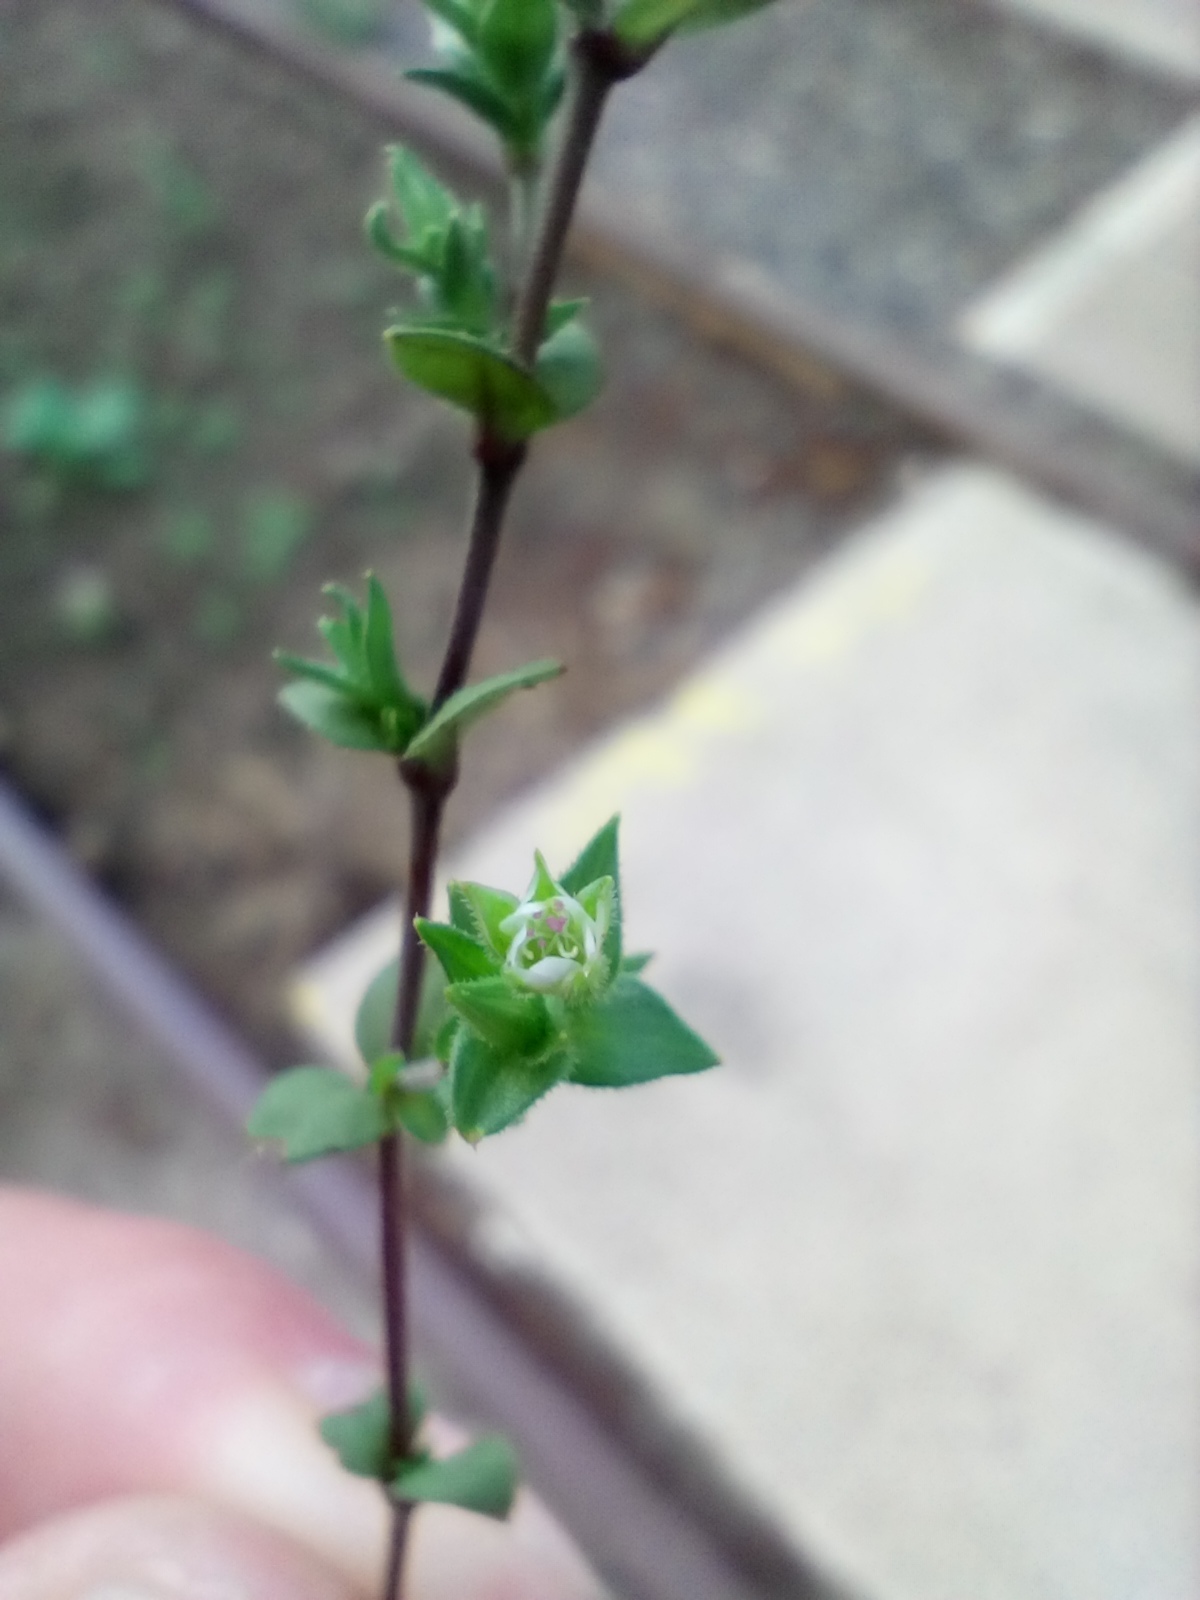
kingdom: Plantae
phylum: Tracheophyta
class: Magnoliopsida
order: Caryophyllales
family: Caryophyllaceae
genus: Arenaria
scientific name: Arenaria serpyllifolia
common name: Thyme-leaved sandwort
